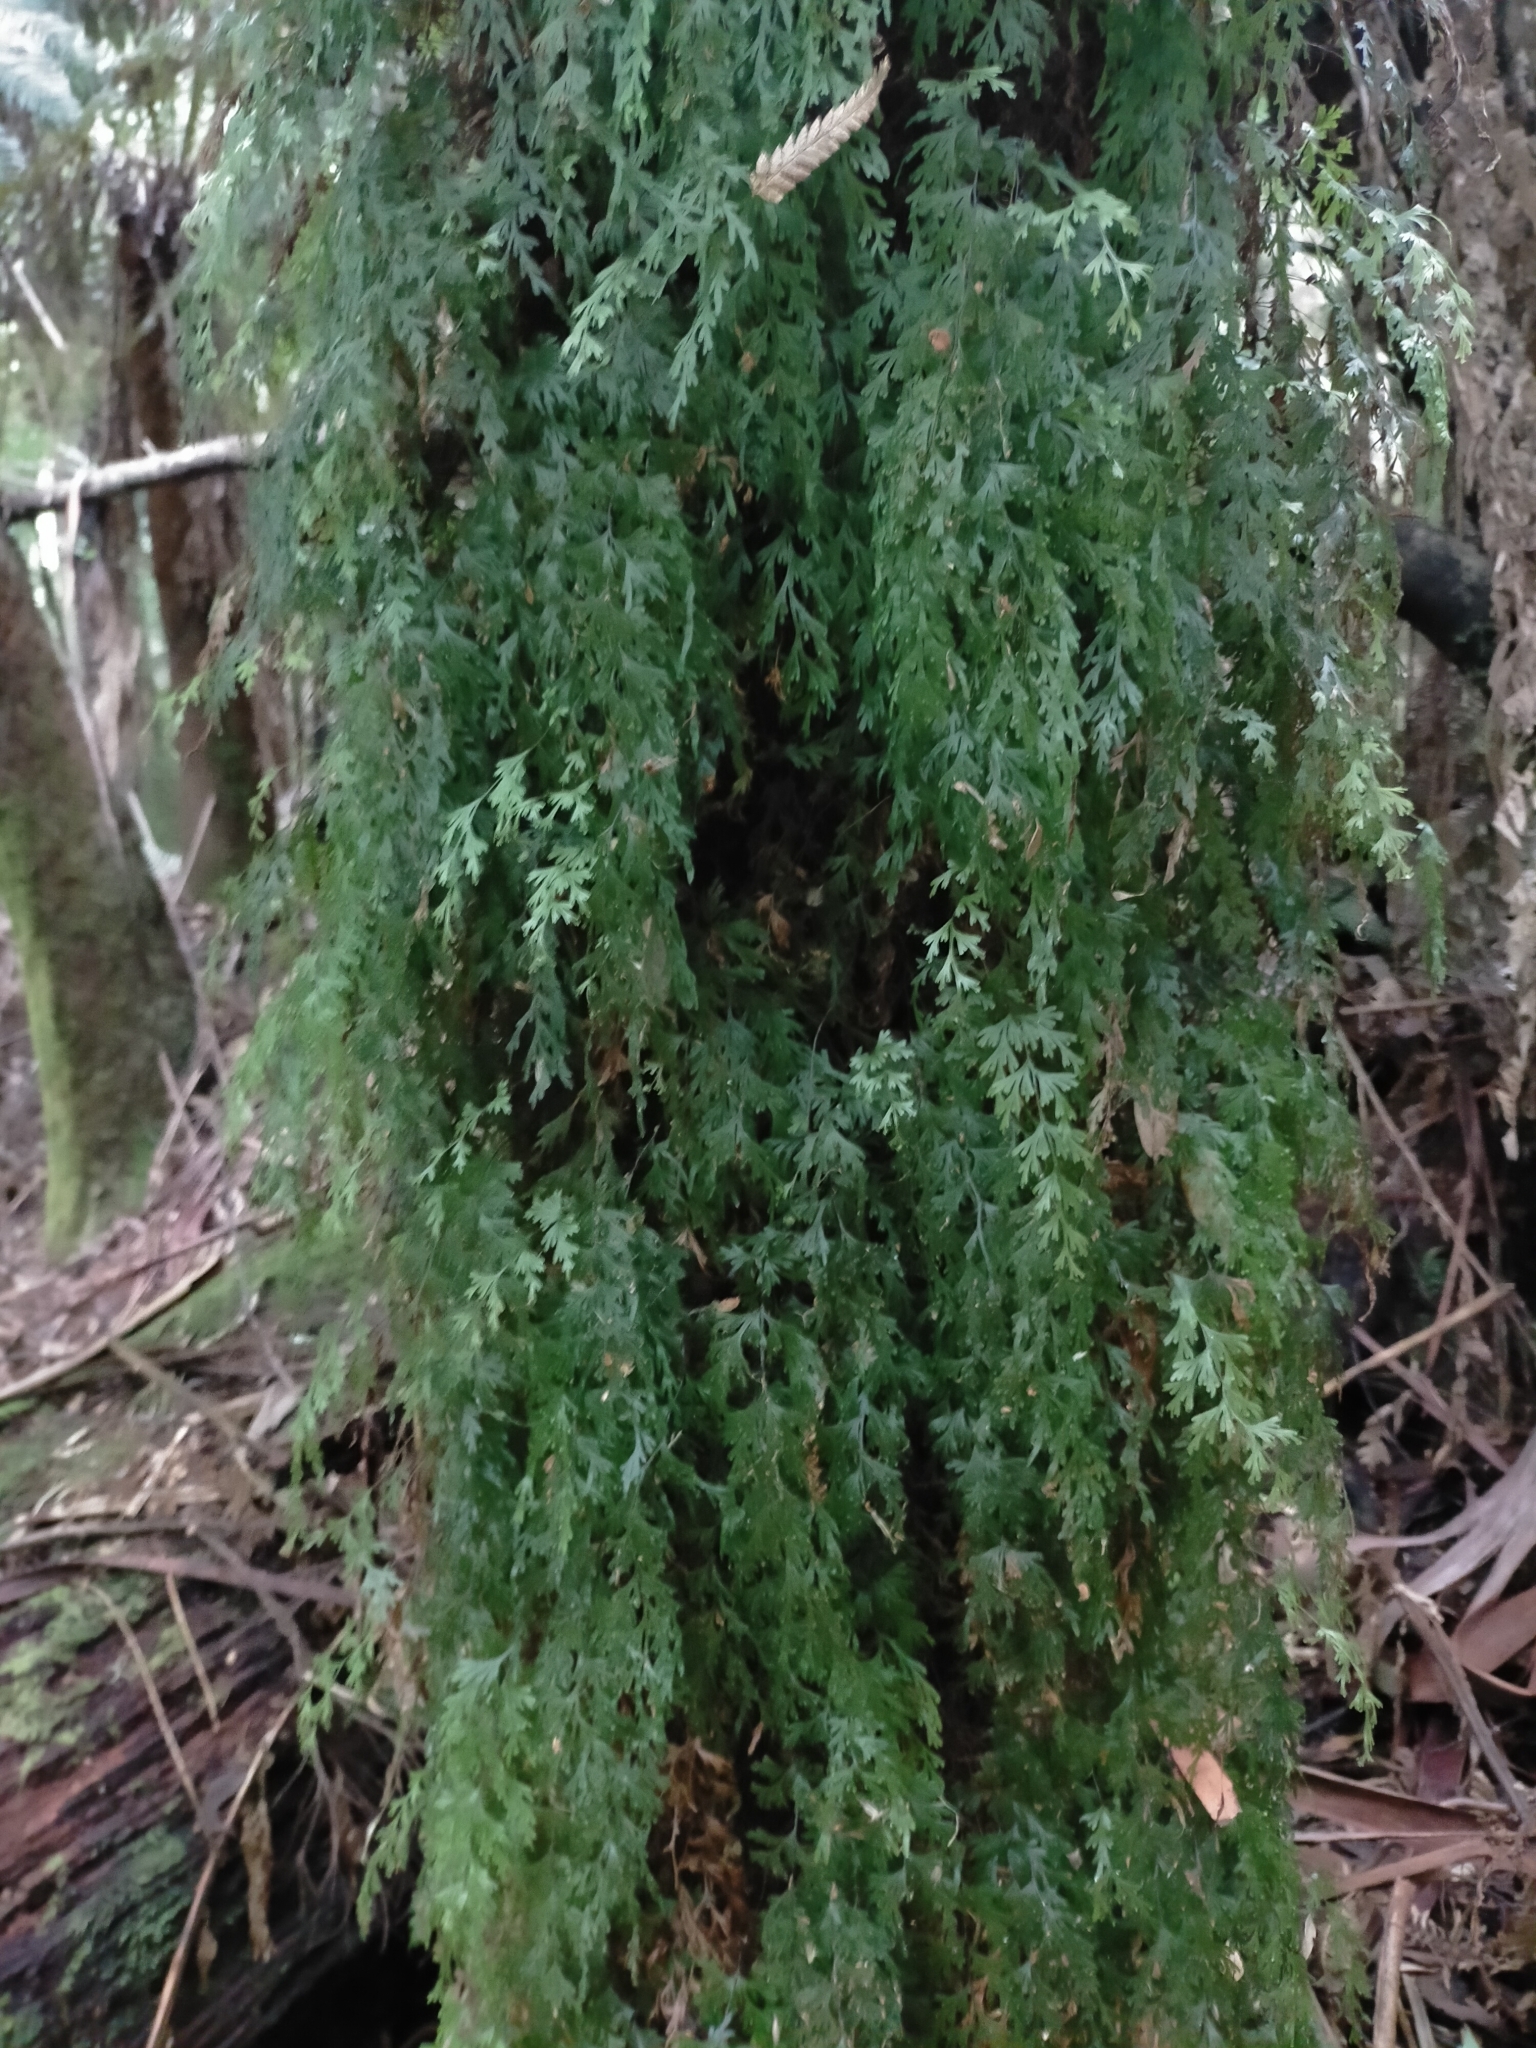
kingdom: Plantae
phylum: Tracheophyta
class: Polypodiopsida
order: Hymenophyllales
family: Hymenophyllaceae
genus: Hymenophyllum
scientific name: Hymenophyllum flabellatum
